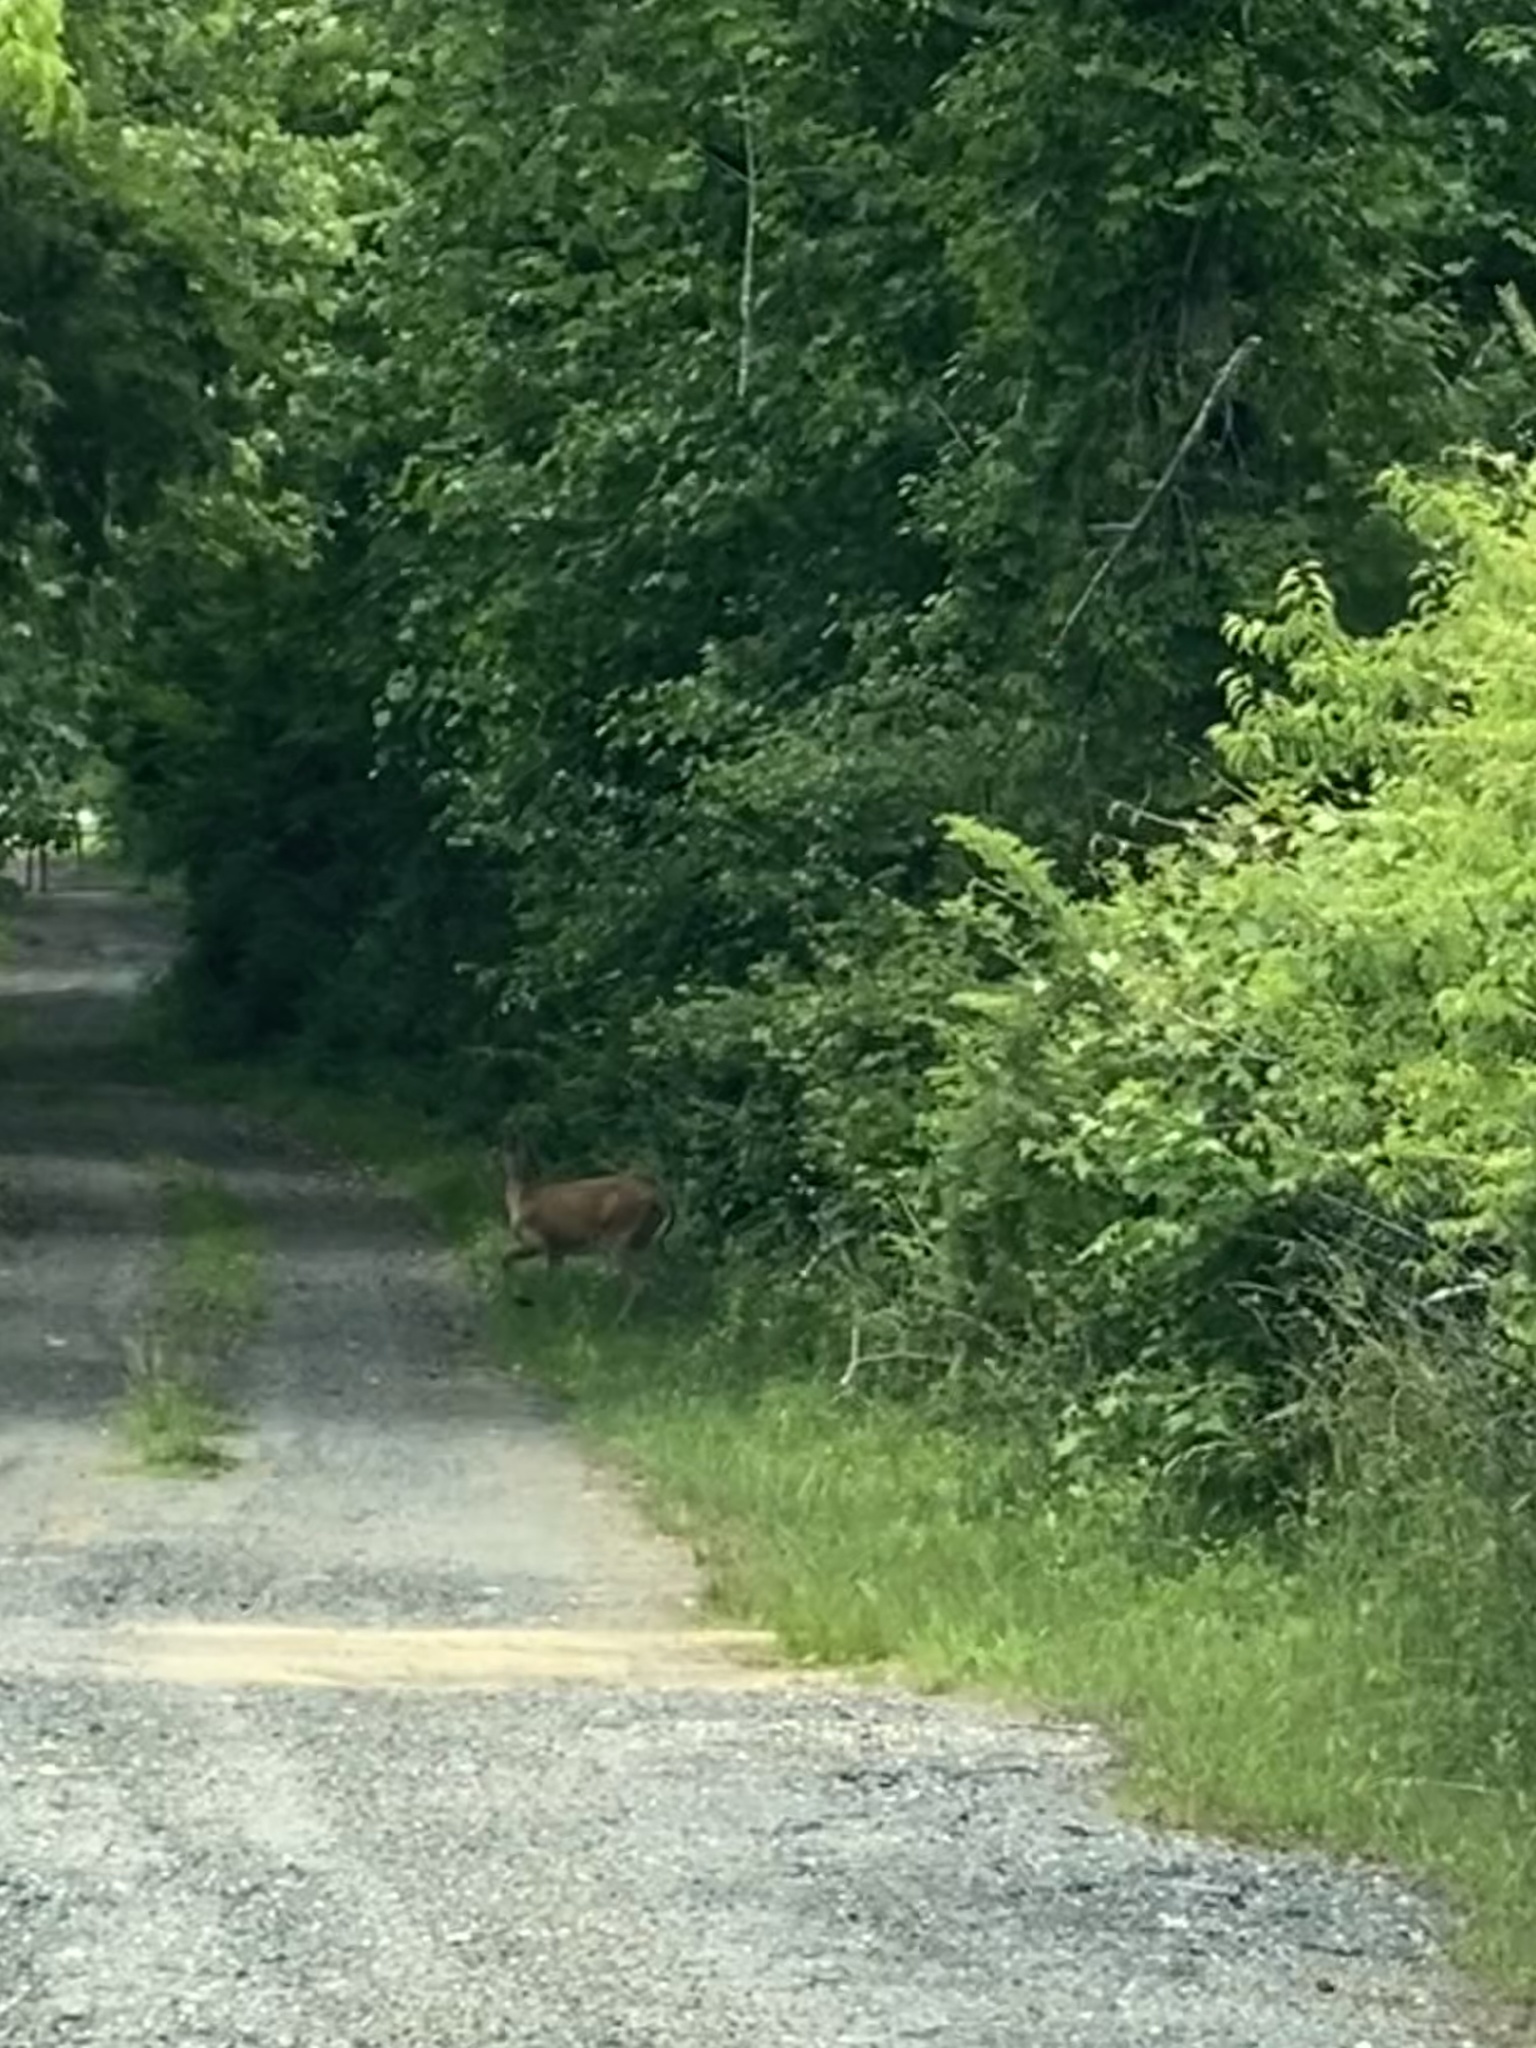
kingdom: Animalia
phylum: Chordata
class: Mammalia
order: Artiodactyla
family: Cervidae
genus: Odocoileus
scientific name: Odocoileus virginianus
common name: White-tailed deer
